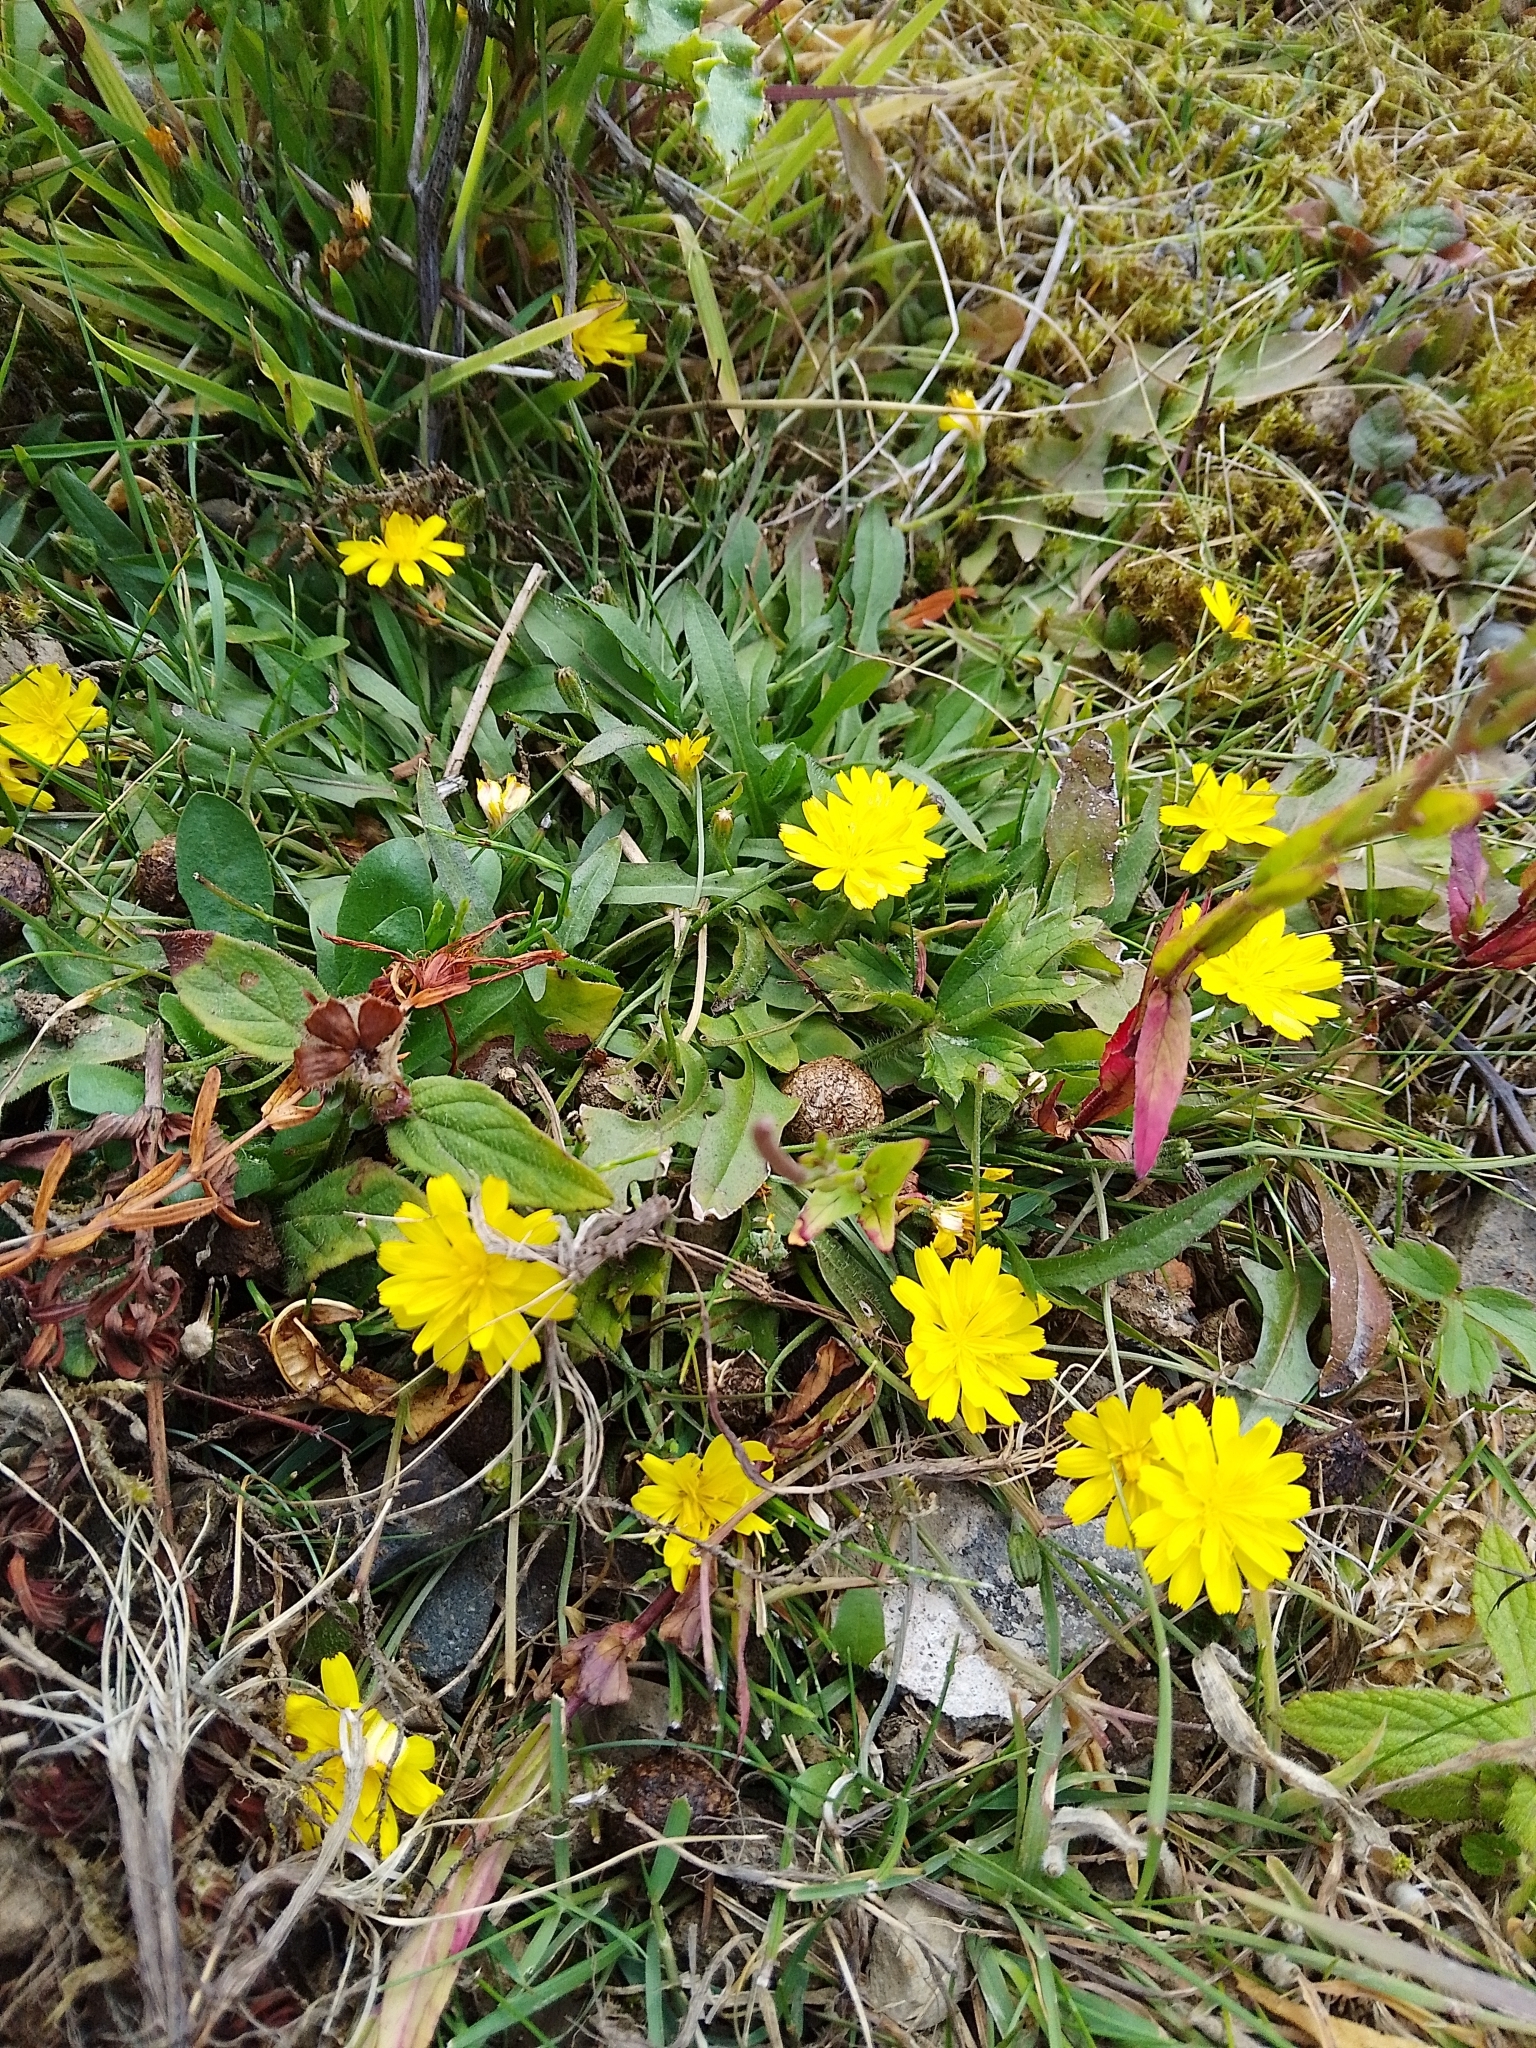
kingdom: Plantae
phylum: Tracheophyta
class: Magnoliopsida
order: Asterales
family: Asteraceae
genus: Crepis
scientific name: Crepis capillaris
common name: Smooth hawksbeard
